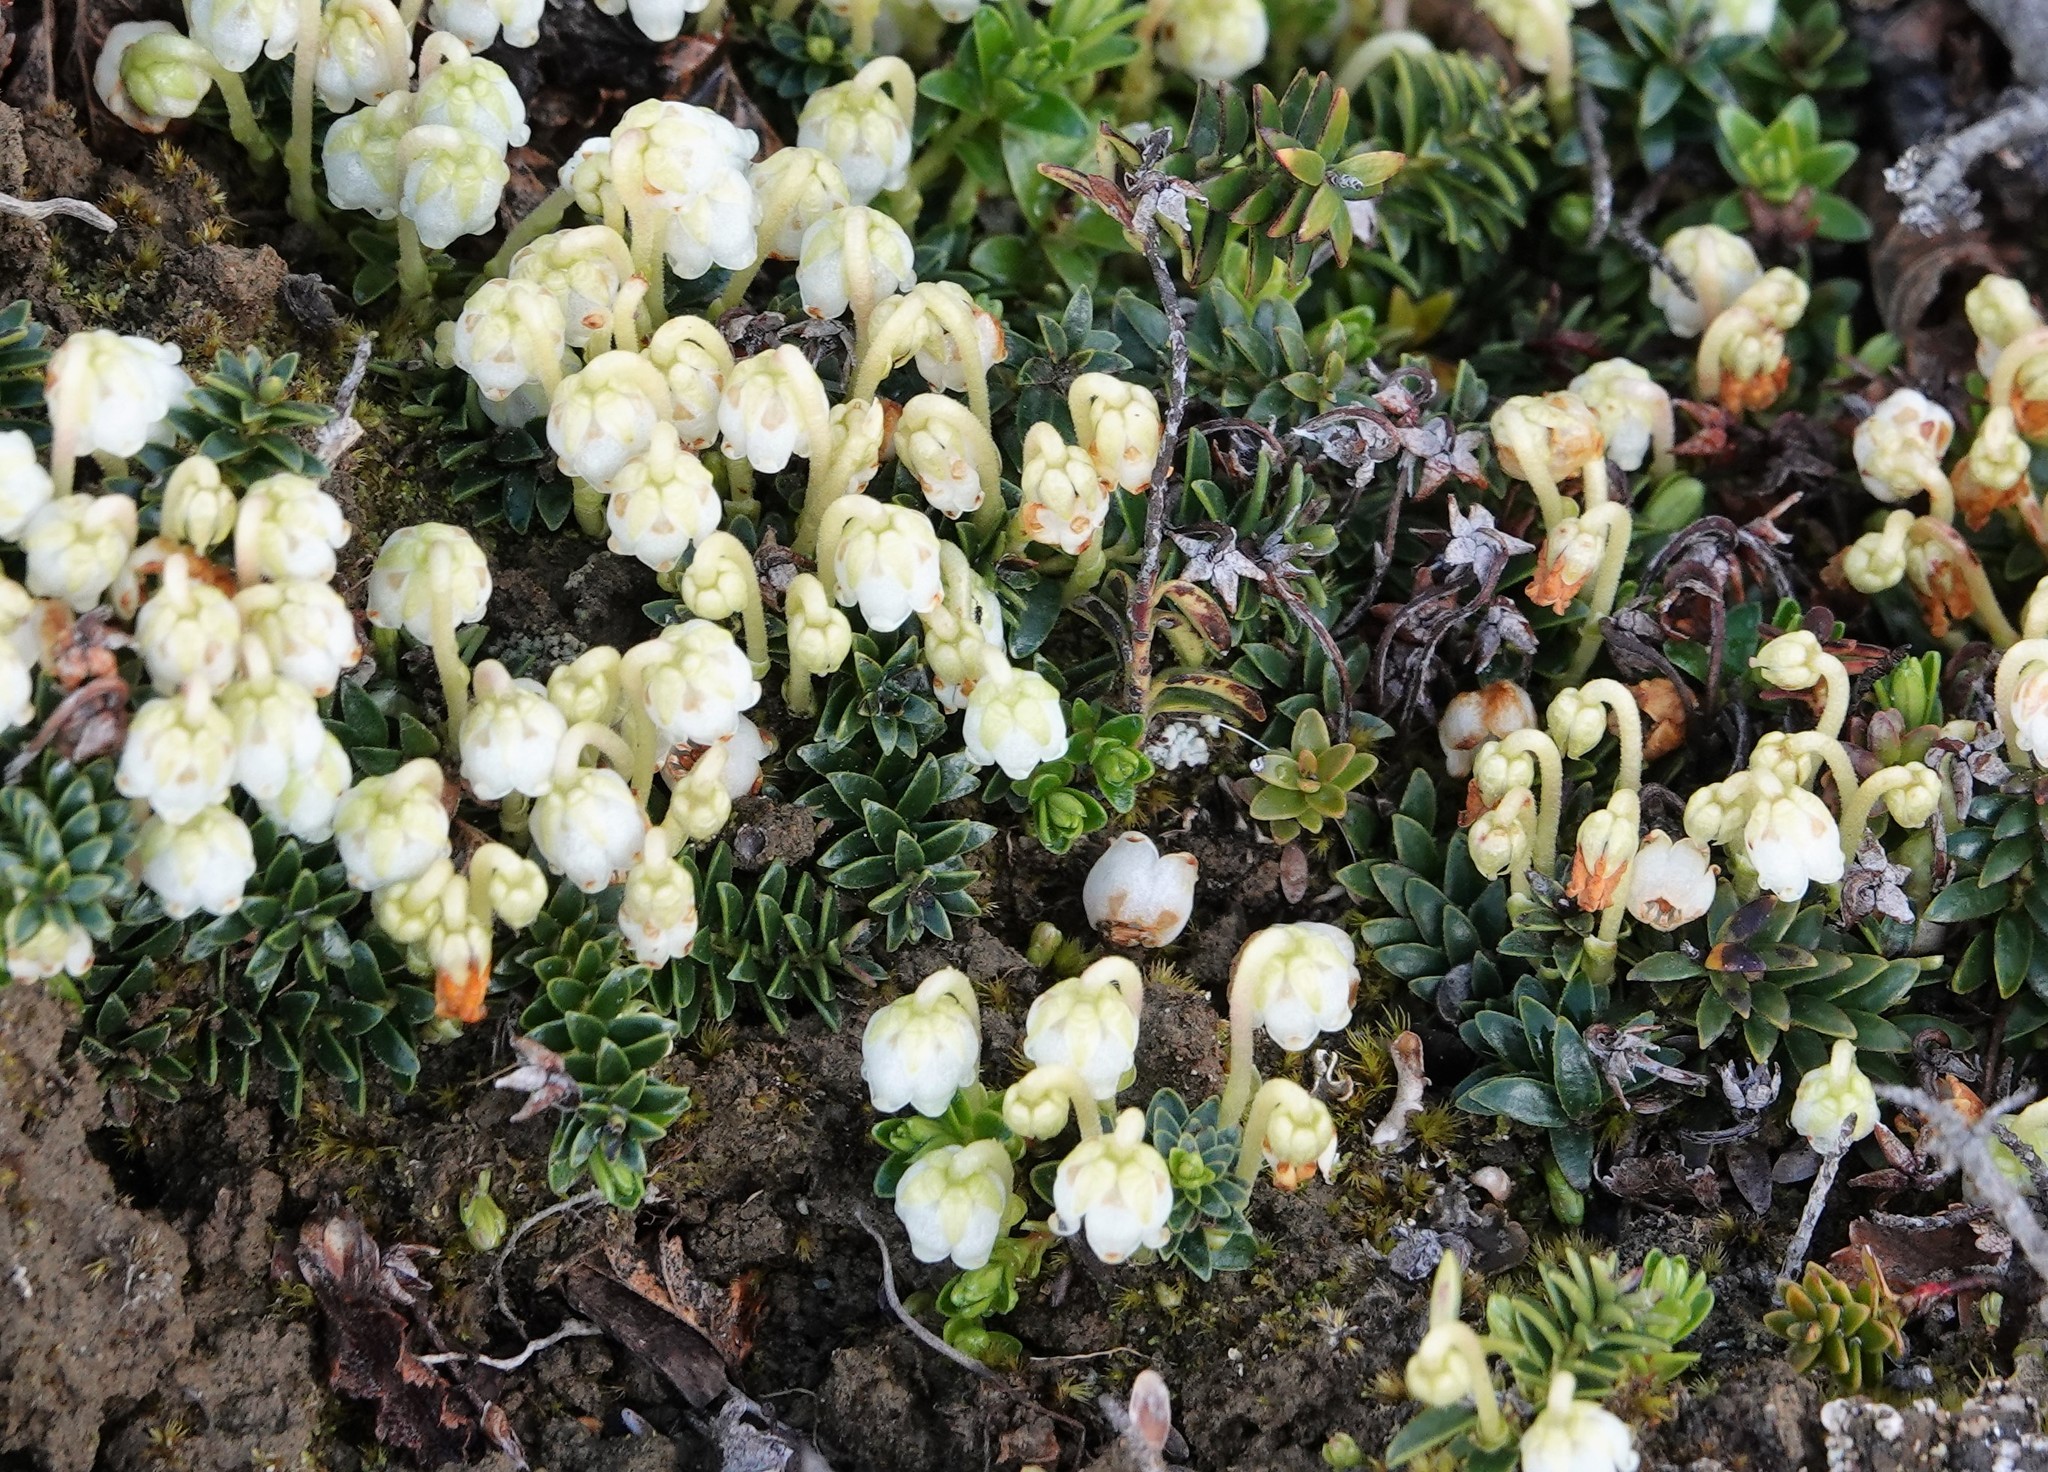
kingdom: Plantae
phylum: Tracheophyta
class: Magnoliopsida
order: Ericales
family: Ericaceae
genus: Gaultheria
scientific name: Gaultheria pumila
